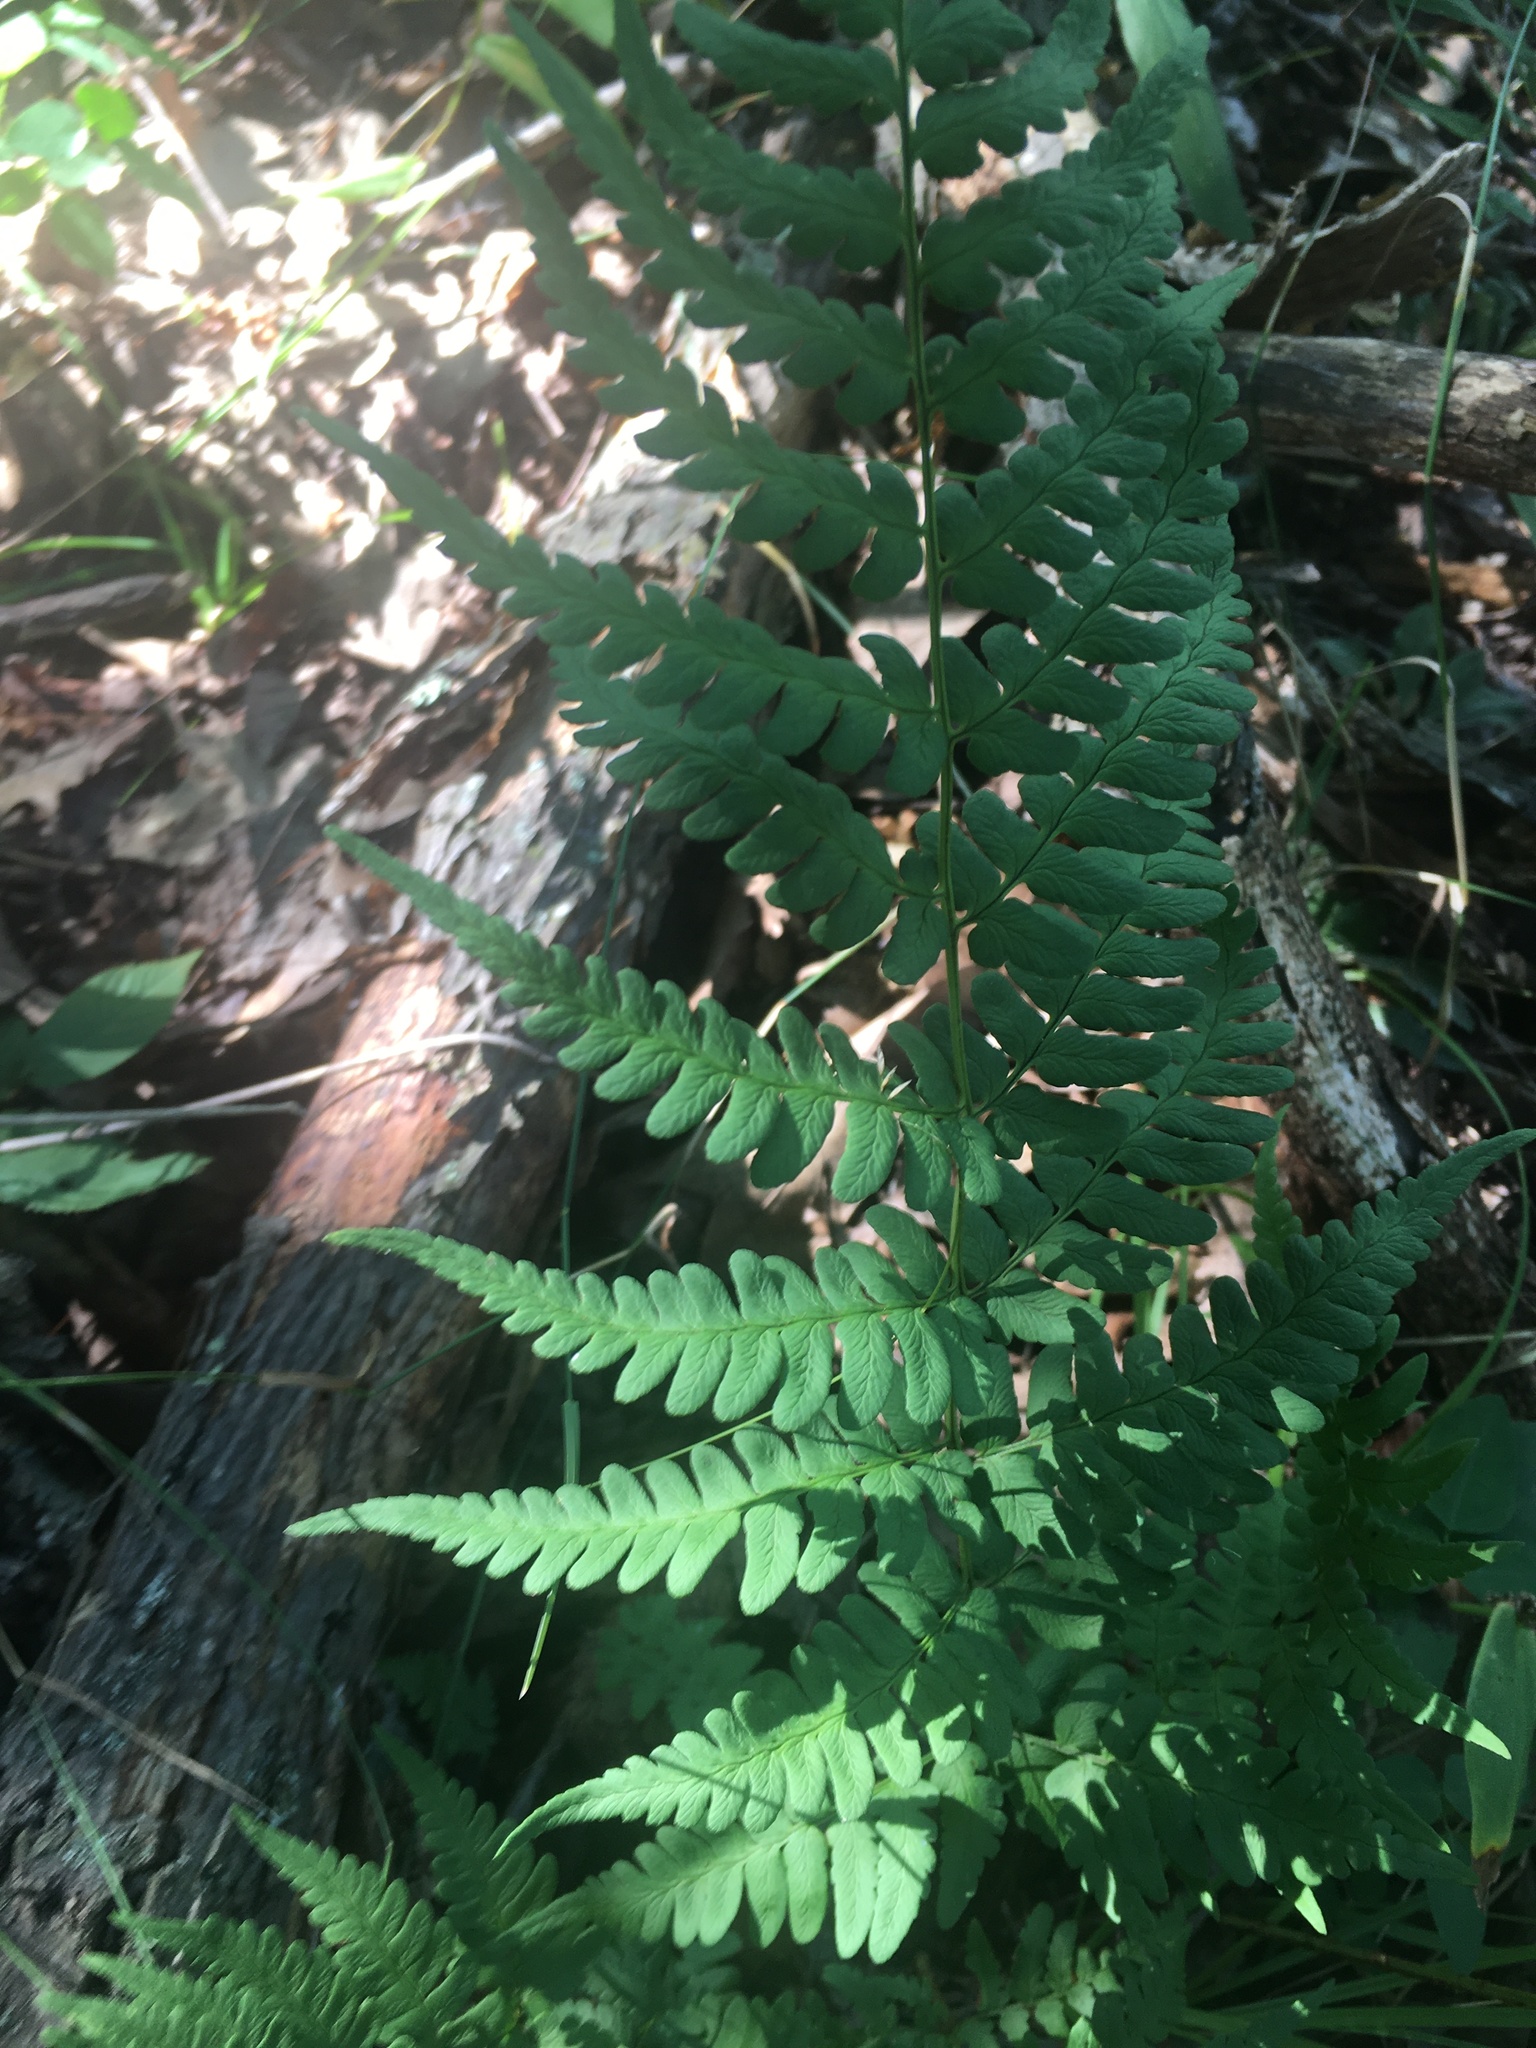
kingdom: Plantae
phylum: Tracheophyta
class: Polypodiopsida
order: Polypodiales
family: Dryopteridaceae
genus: Dryopteris
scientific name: Dryopteris marginalis
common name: Marginal wood fern
